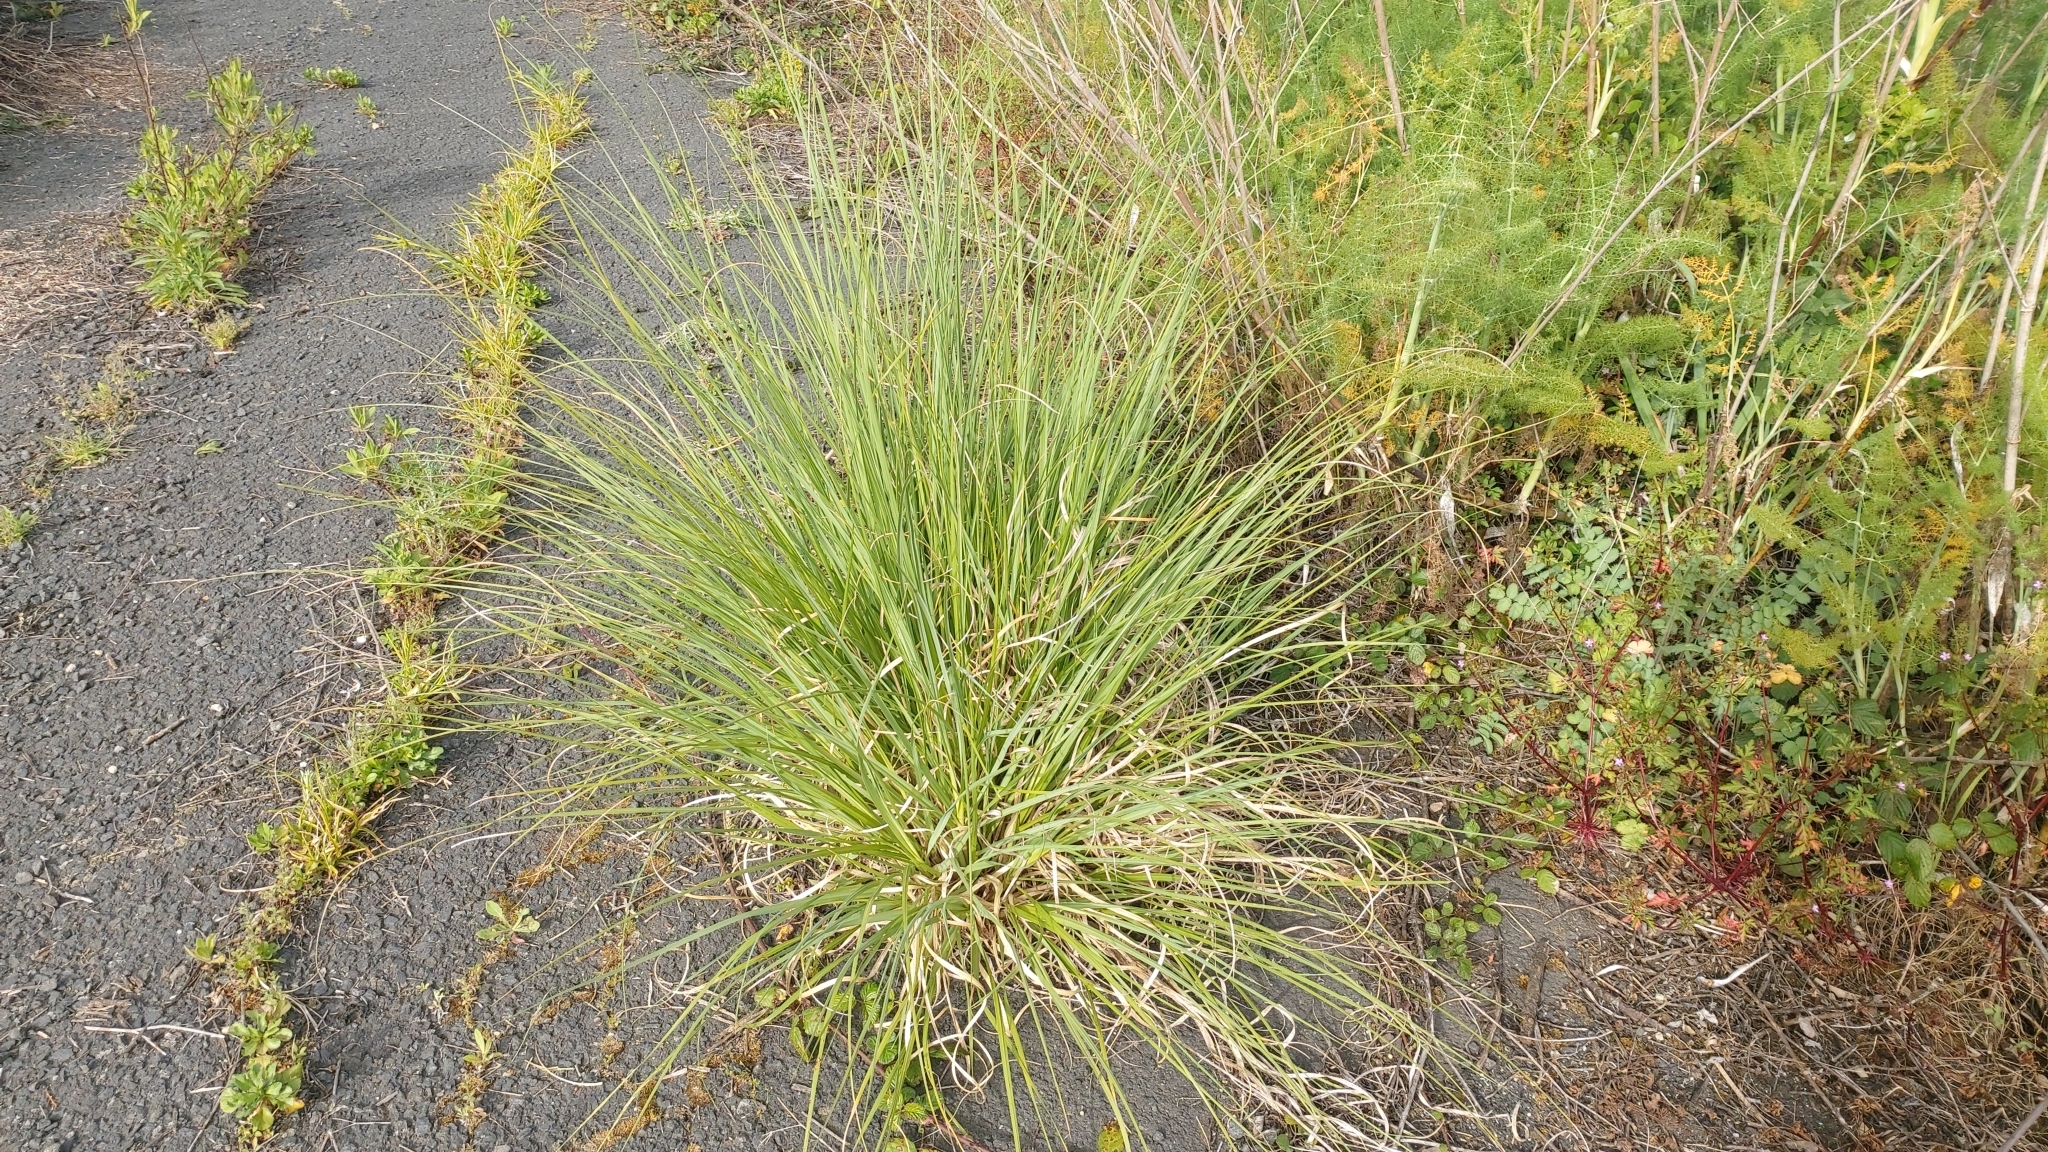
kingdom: Plantae
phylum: Tracheophyta
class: Liliopsida
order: Poales
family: Poaceae
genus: Cortaderia
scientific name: Cortaderia selloana
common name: Uruguayan pampas grass
